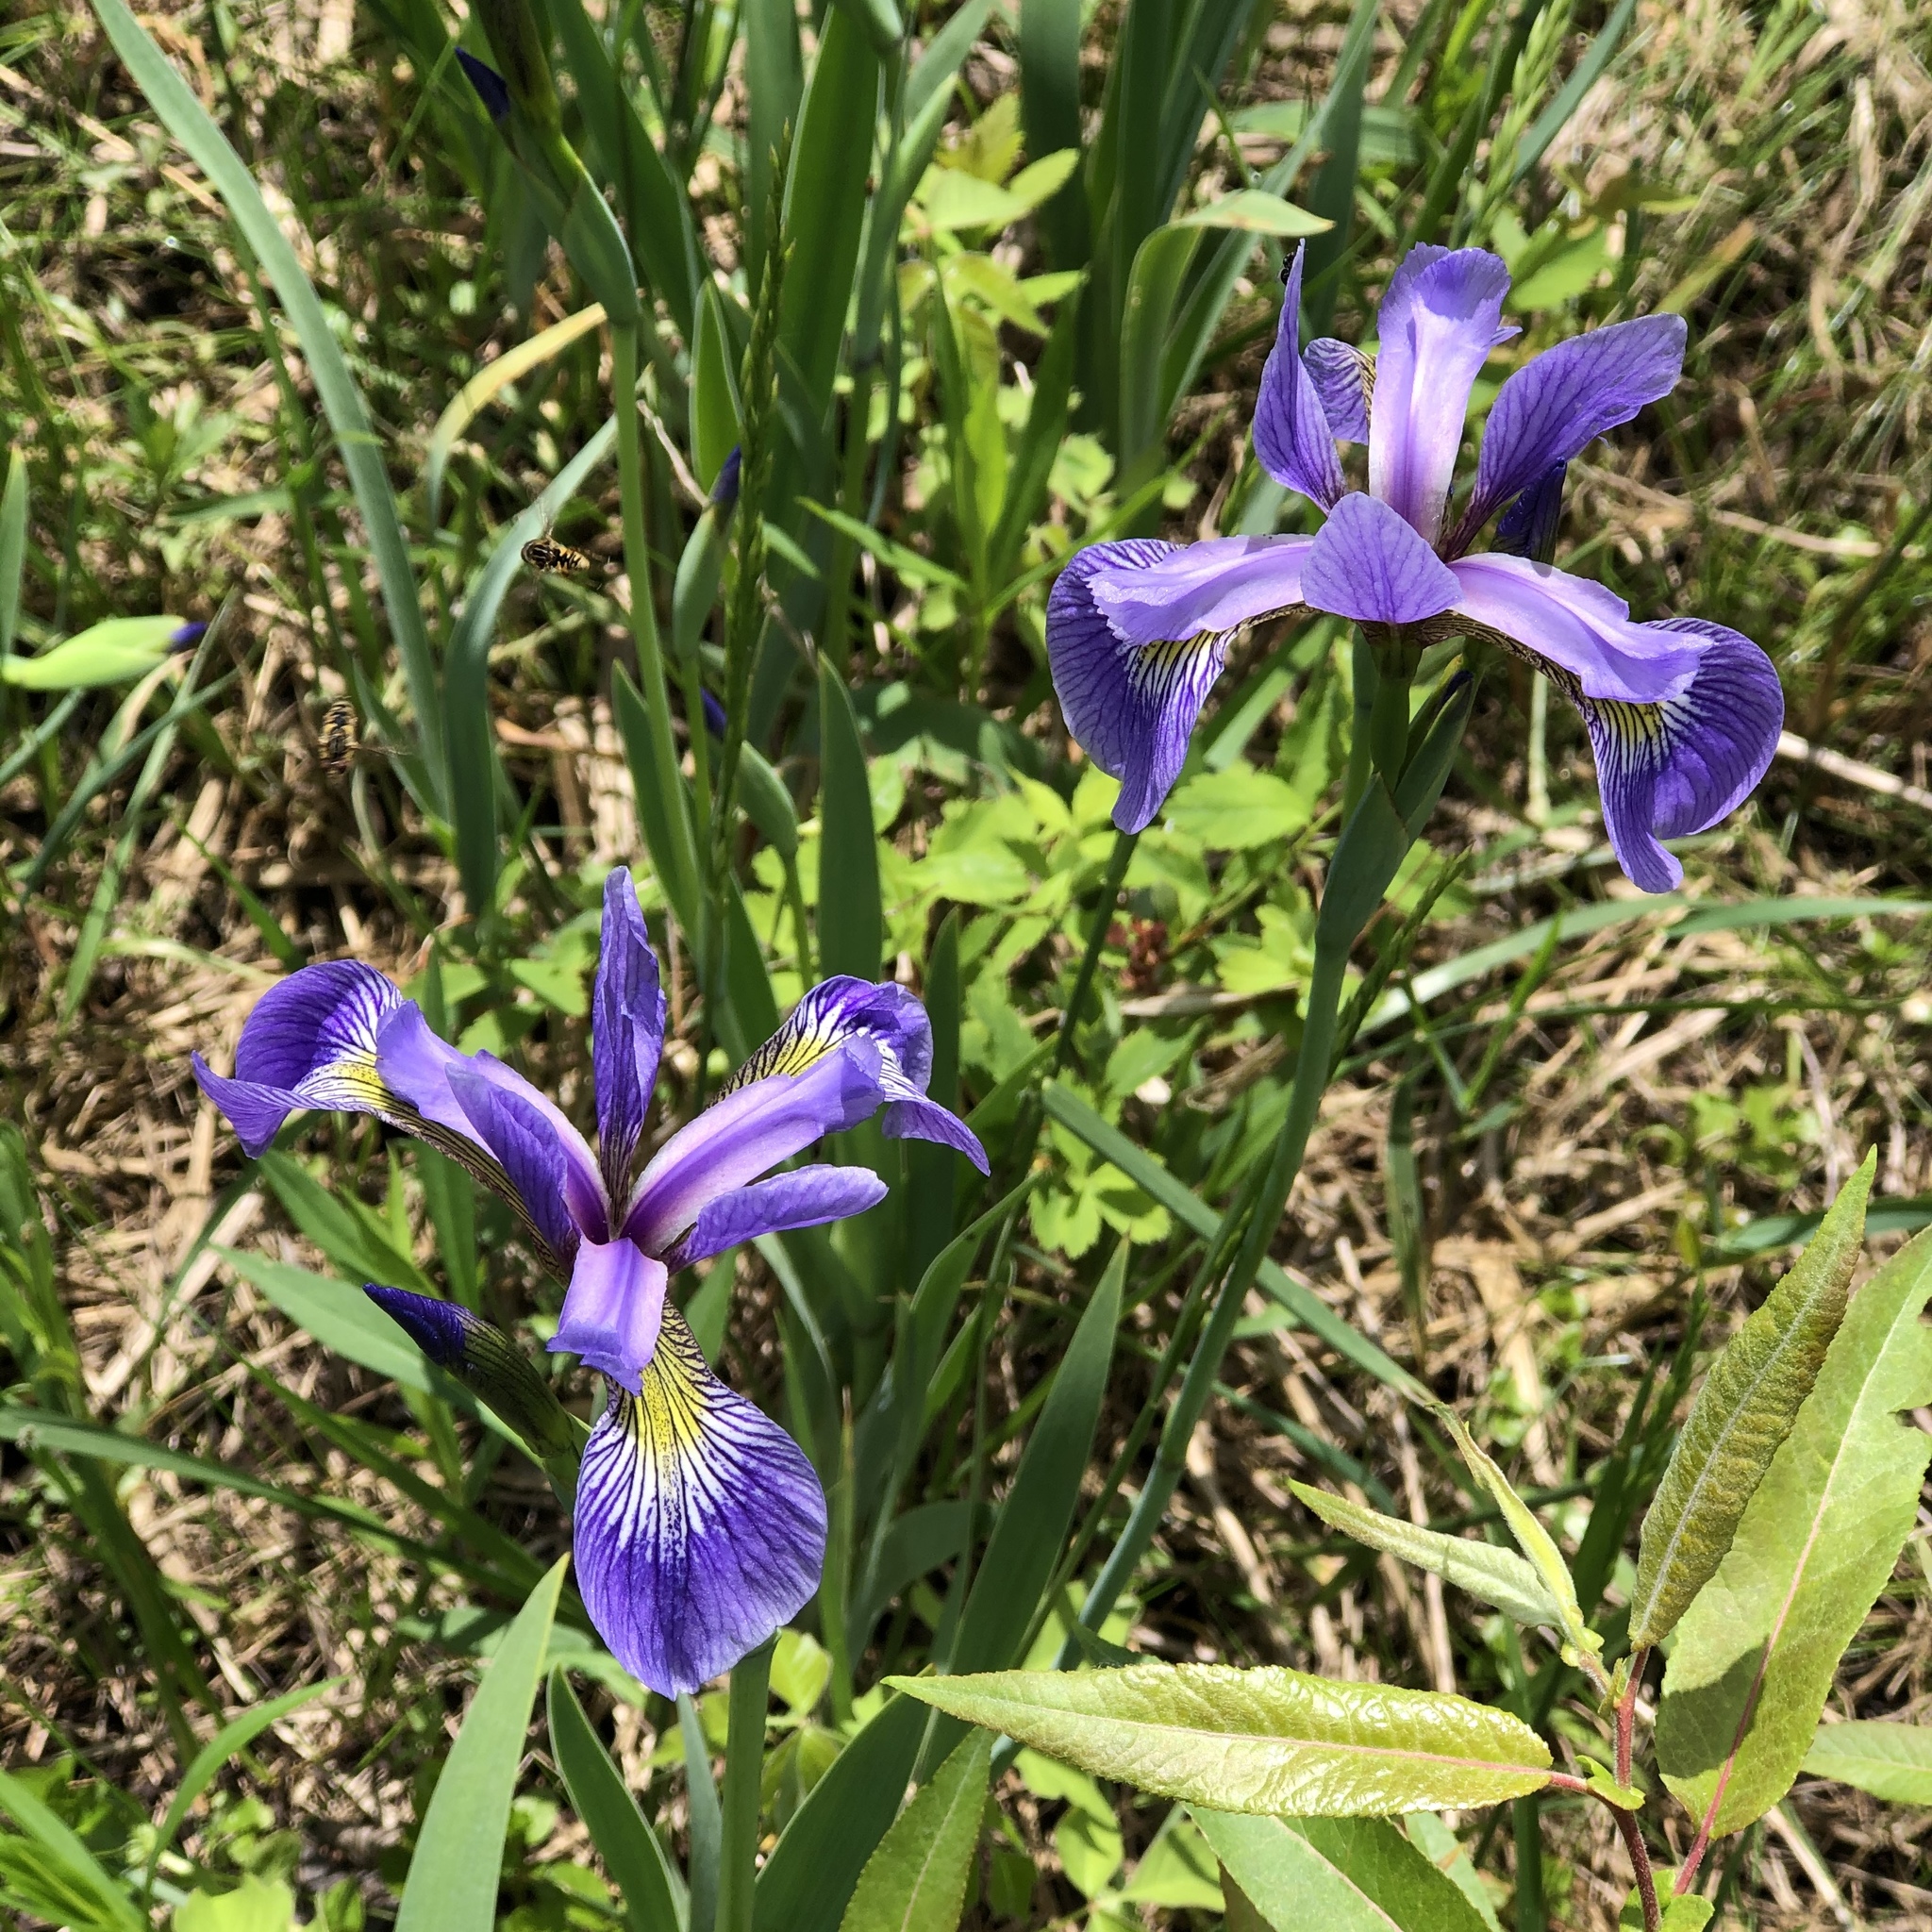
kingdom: Plantae
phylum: Tracheophyta
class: Liliopsida
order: Asparagales
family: Iridaceae
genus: Iris
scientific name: Iris versicolor
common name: Purple iris
